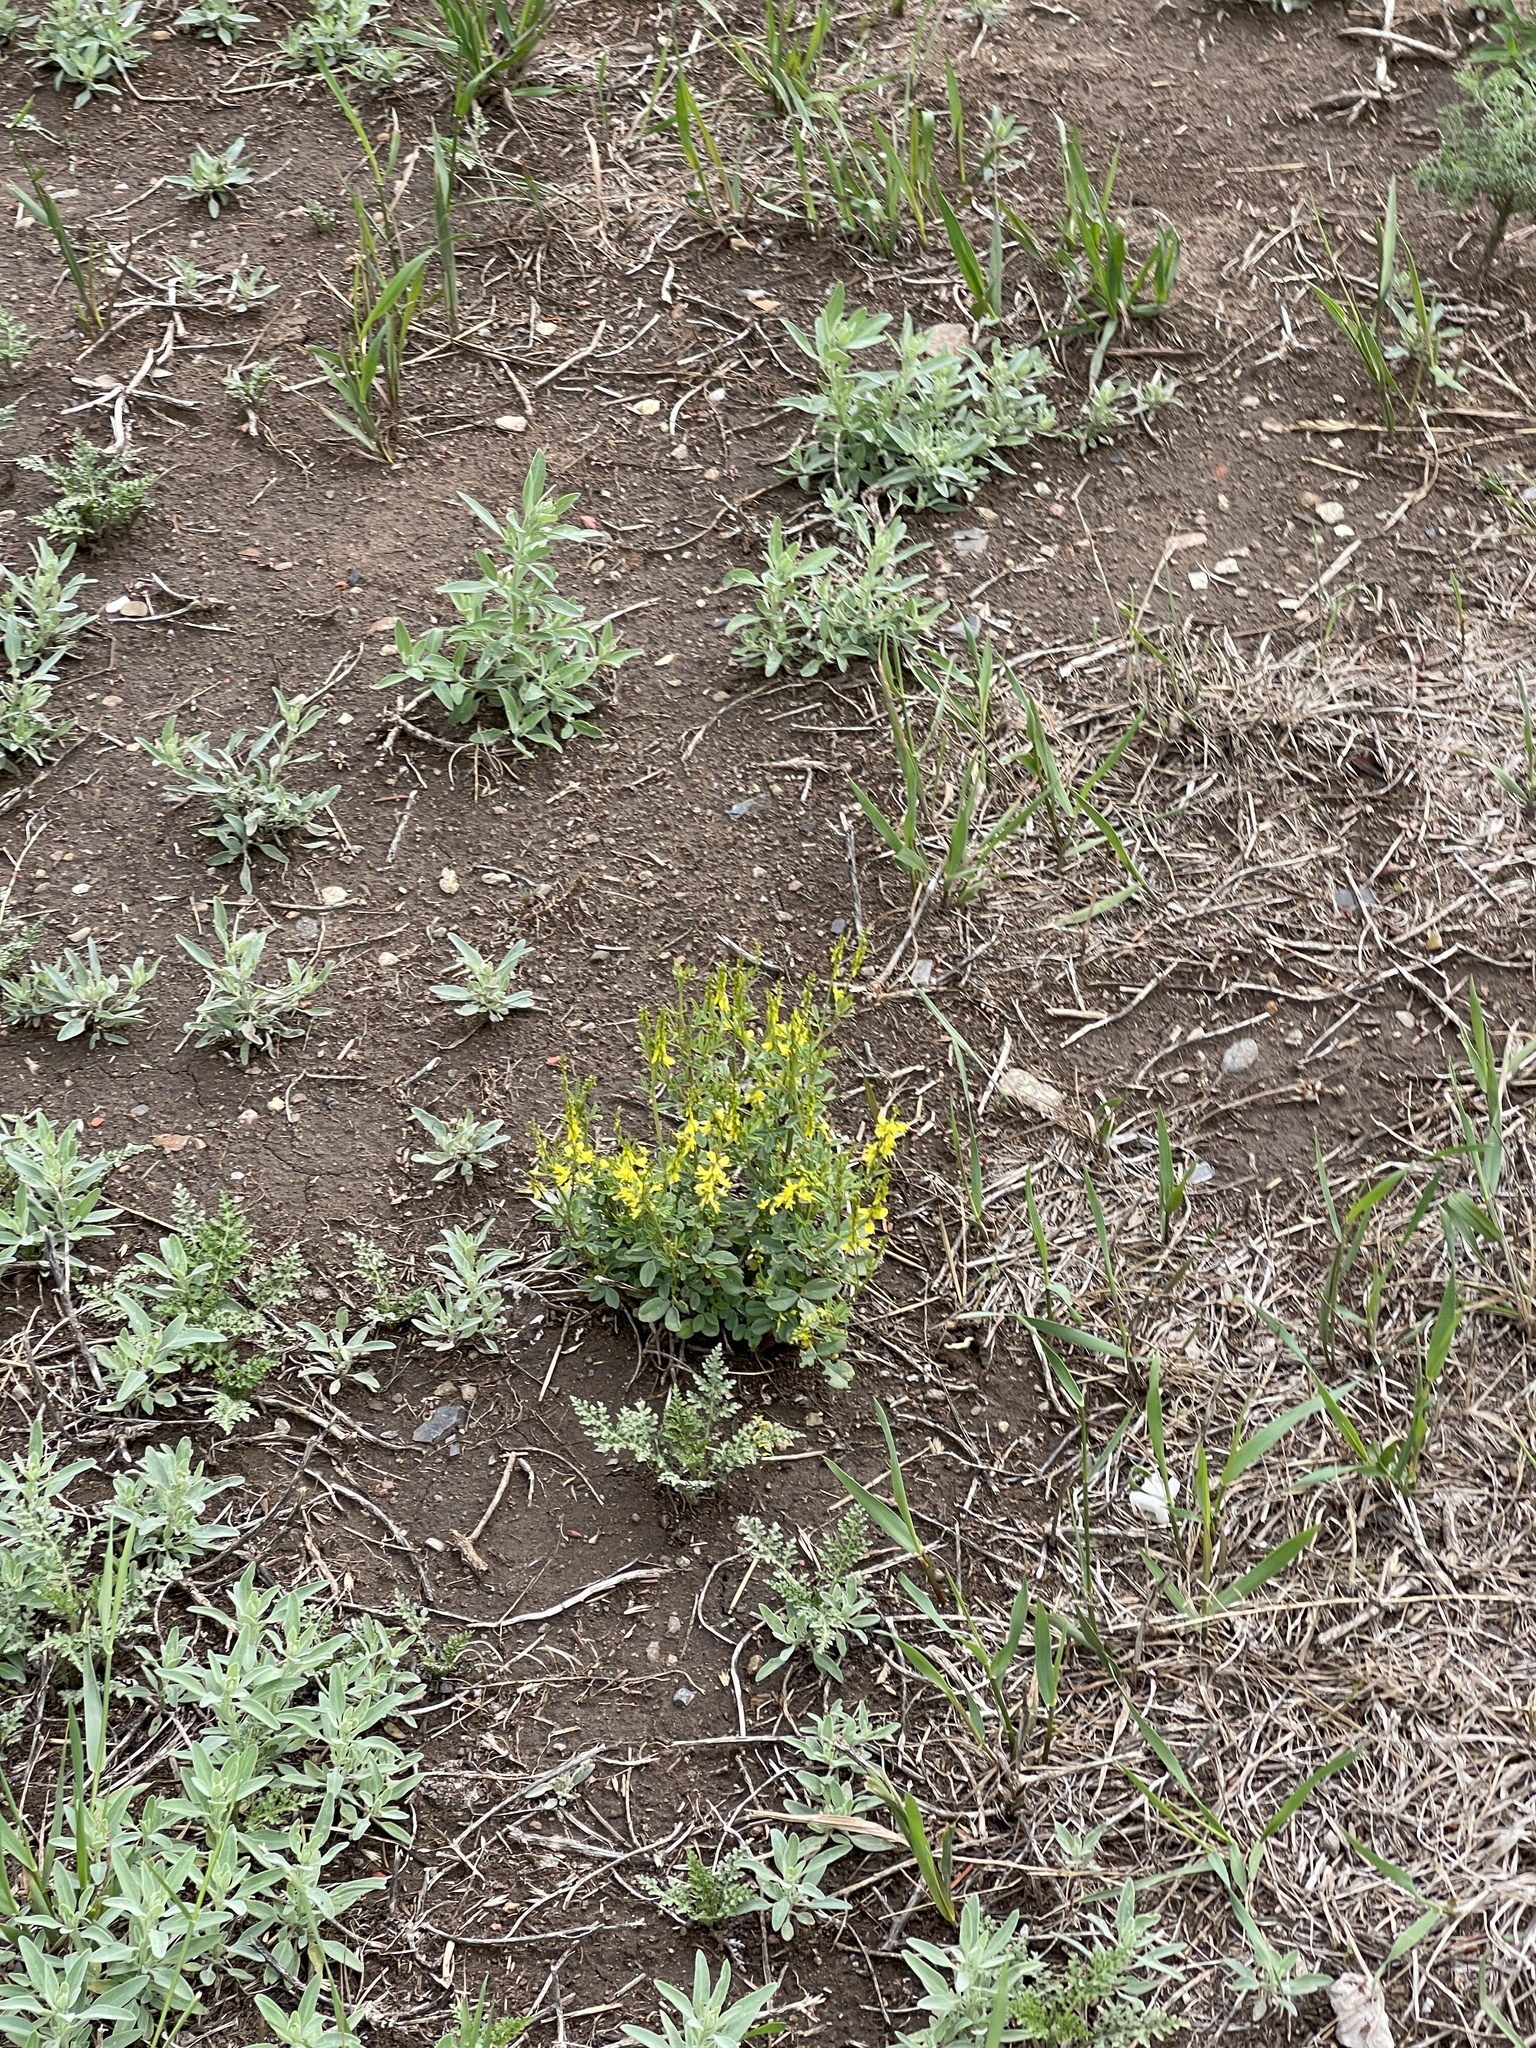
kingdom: Plantae
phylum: Tracheophyta
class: Magnoliopsida
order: Fabales
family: Fabaceae
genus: Melilotus
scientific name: Melilotus officinalis
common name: Sweetclover
